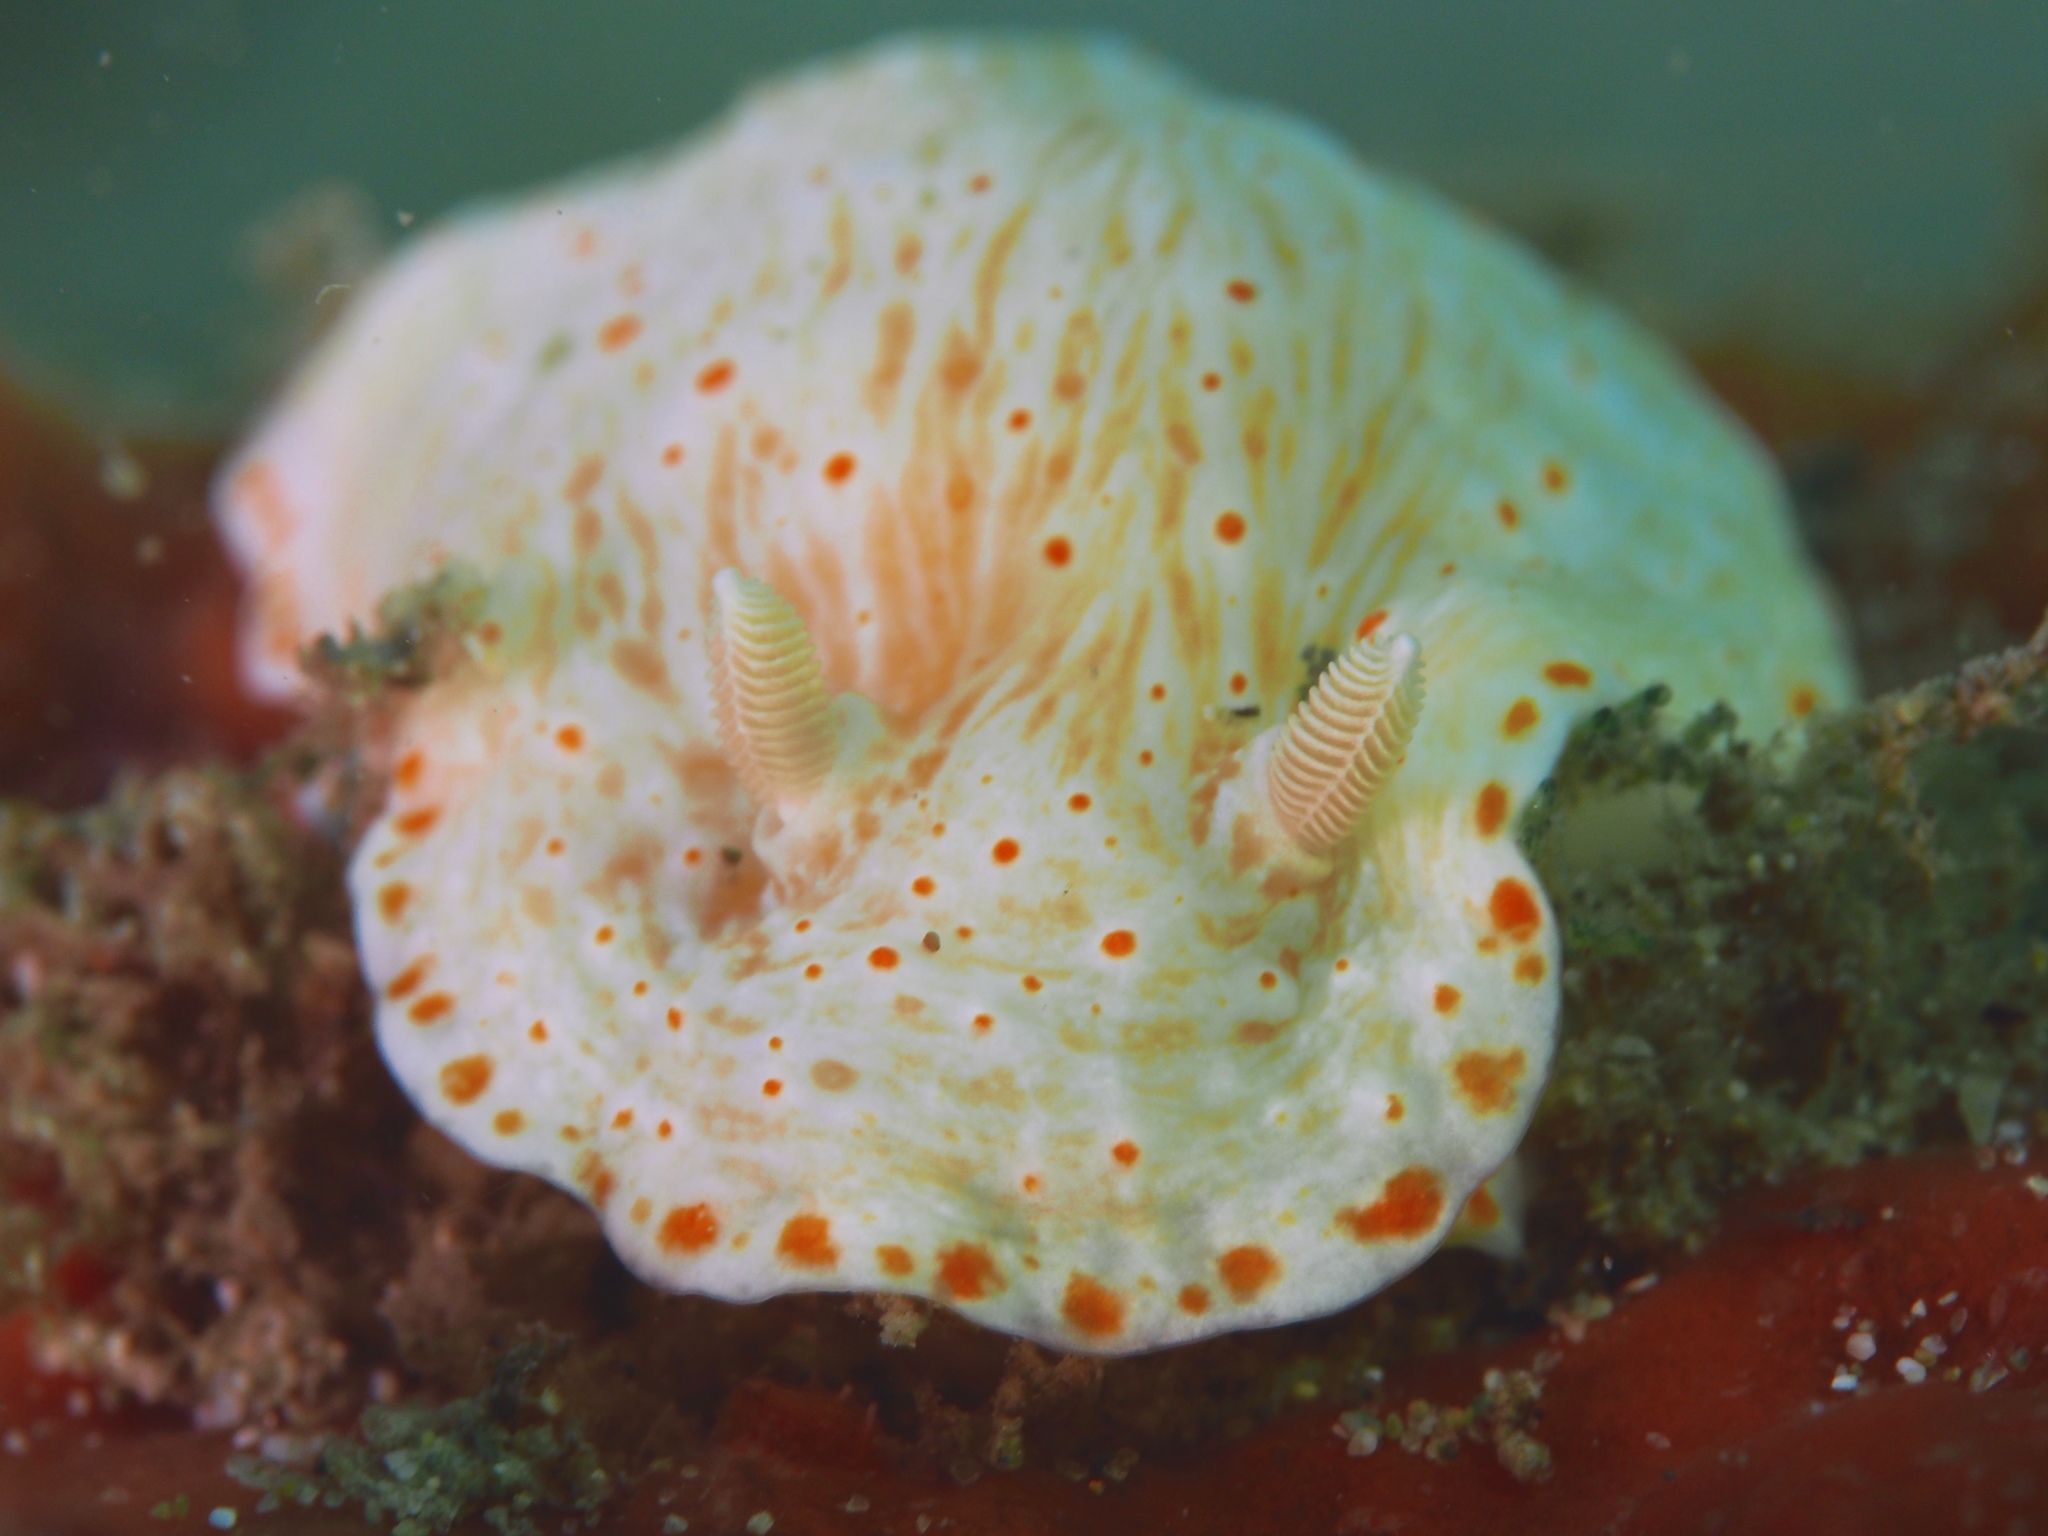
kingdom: Animalia
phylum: Mollusca
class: Gastropoda
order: Nudibranchia
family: Chromodorididae
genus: Goniobranchus
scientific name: Goniobranchus epicurius
